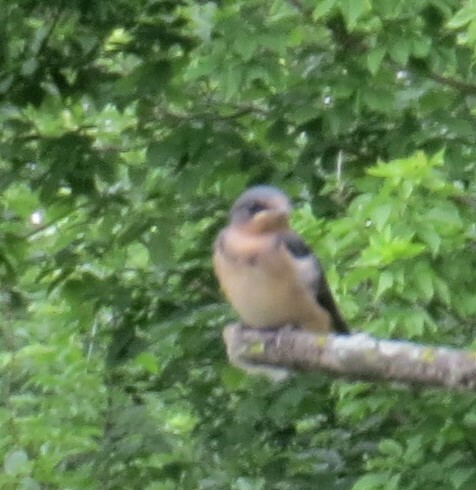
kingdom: Animalia
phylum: Chordata
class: Aves
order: Passeriformes
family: Hirundinidae
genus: Hirundo
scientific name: Hirundo rustica
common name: Barn swallow
